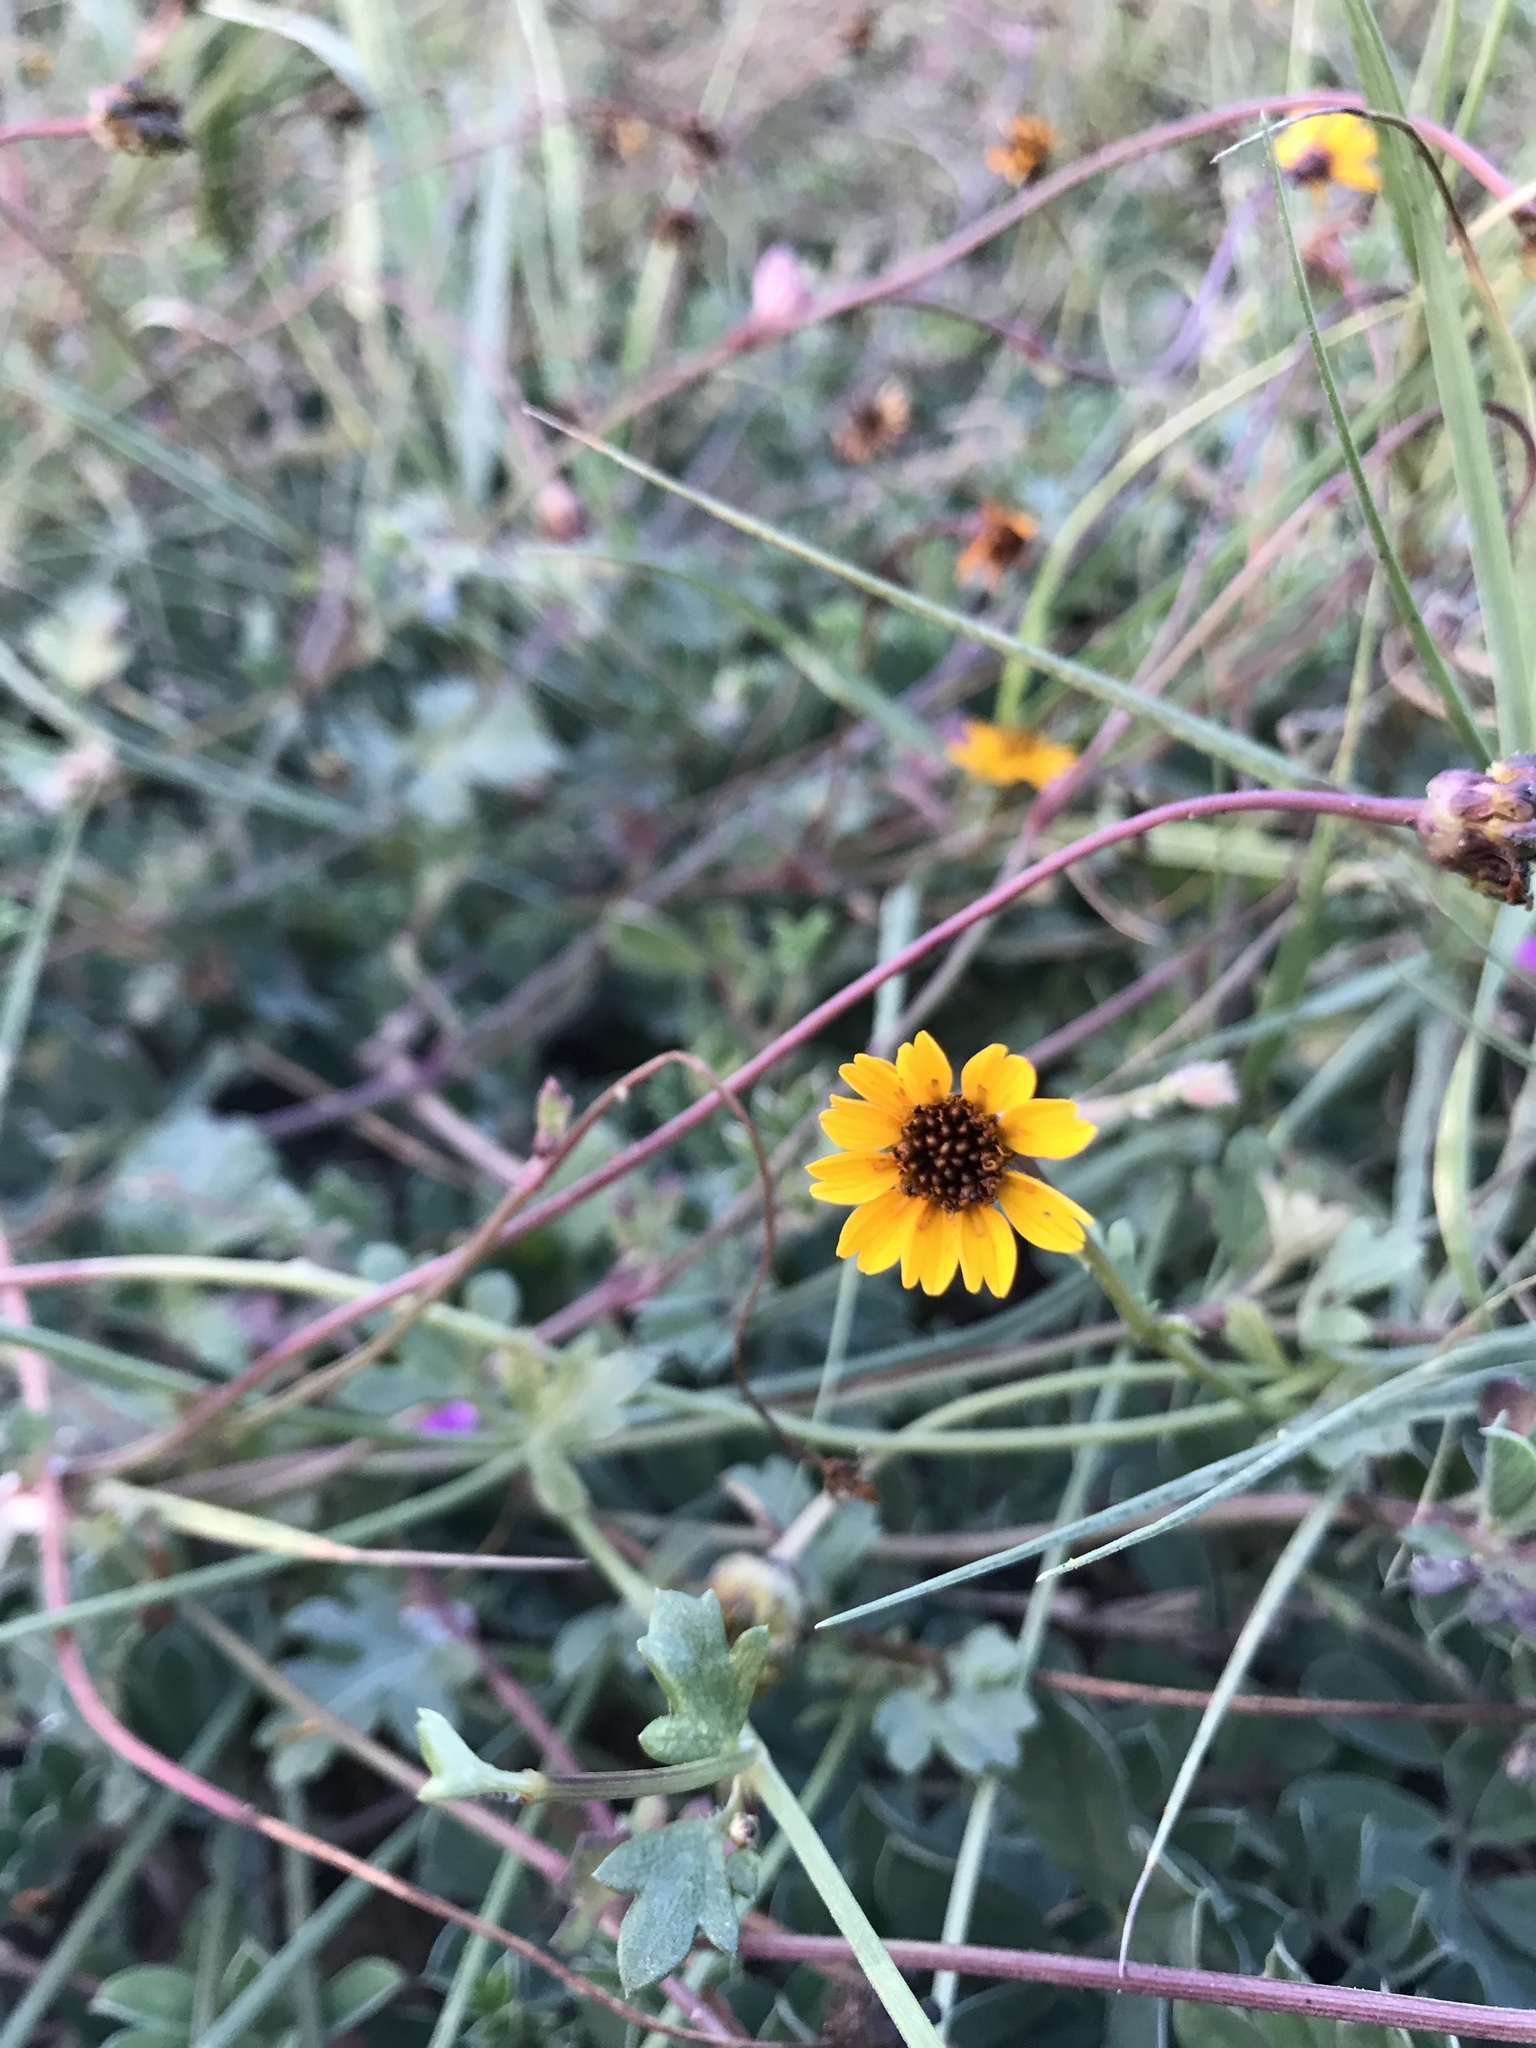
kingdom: Plantae
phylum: Tracheophyta
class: Magnoliopsida
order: Asterales
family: Asteraceae
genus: Chrysanthellum
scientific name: Chrysanthellum pilzii
